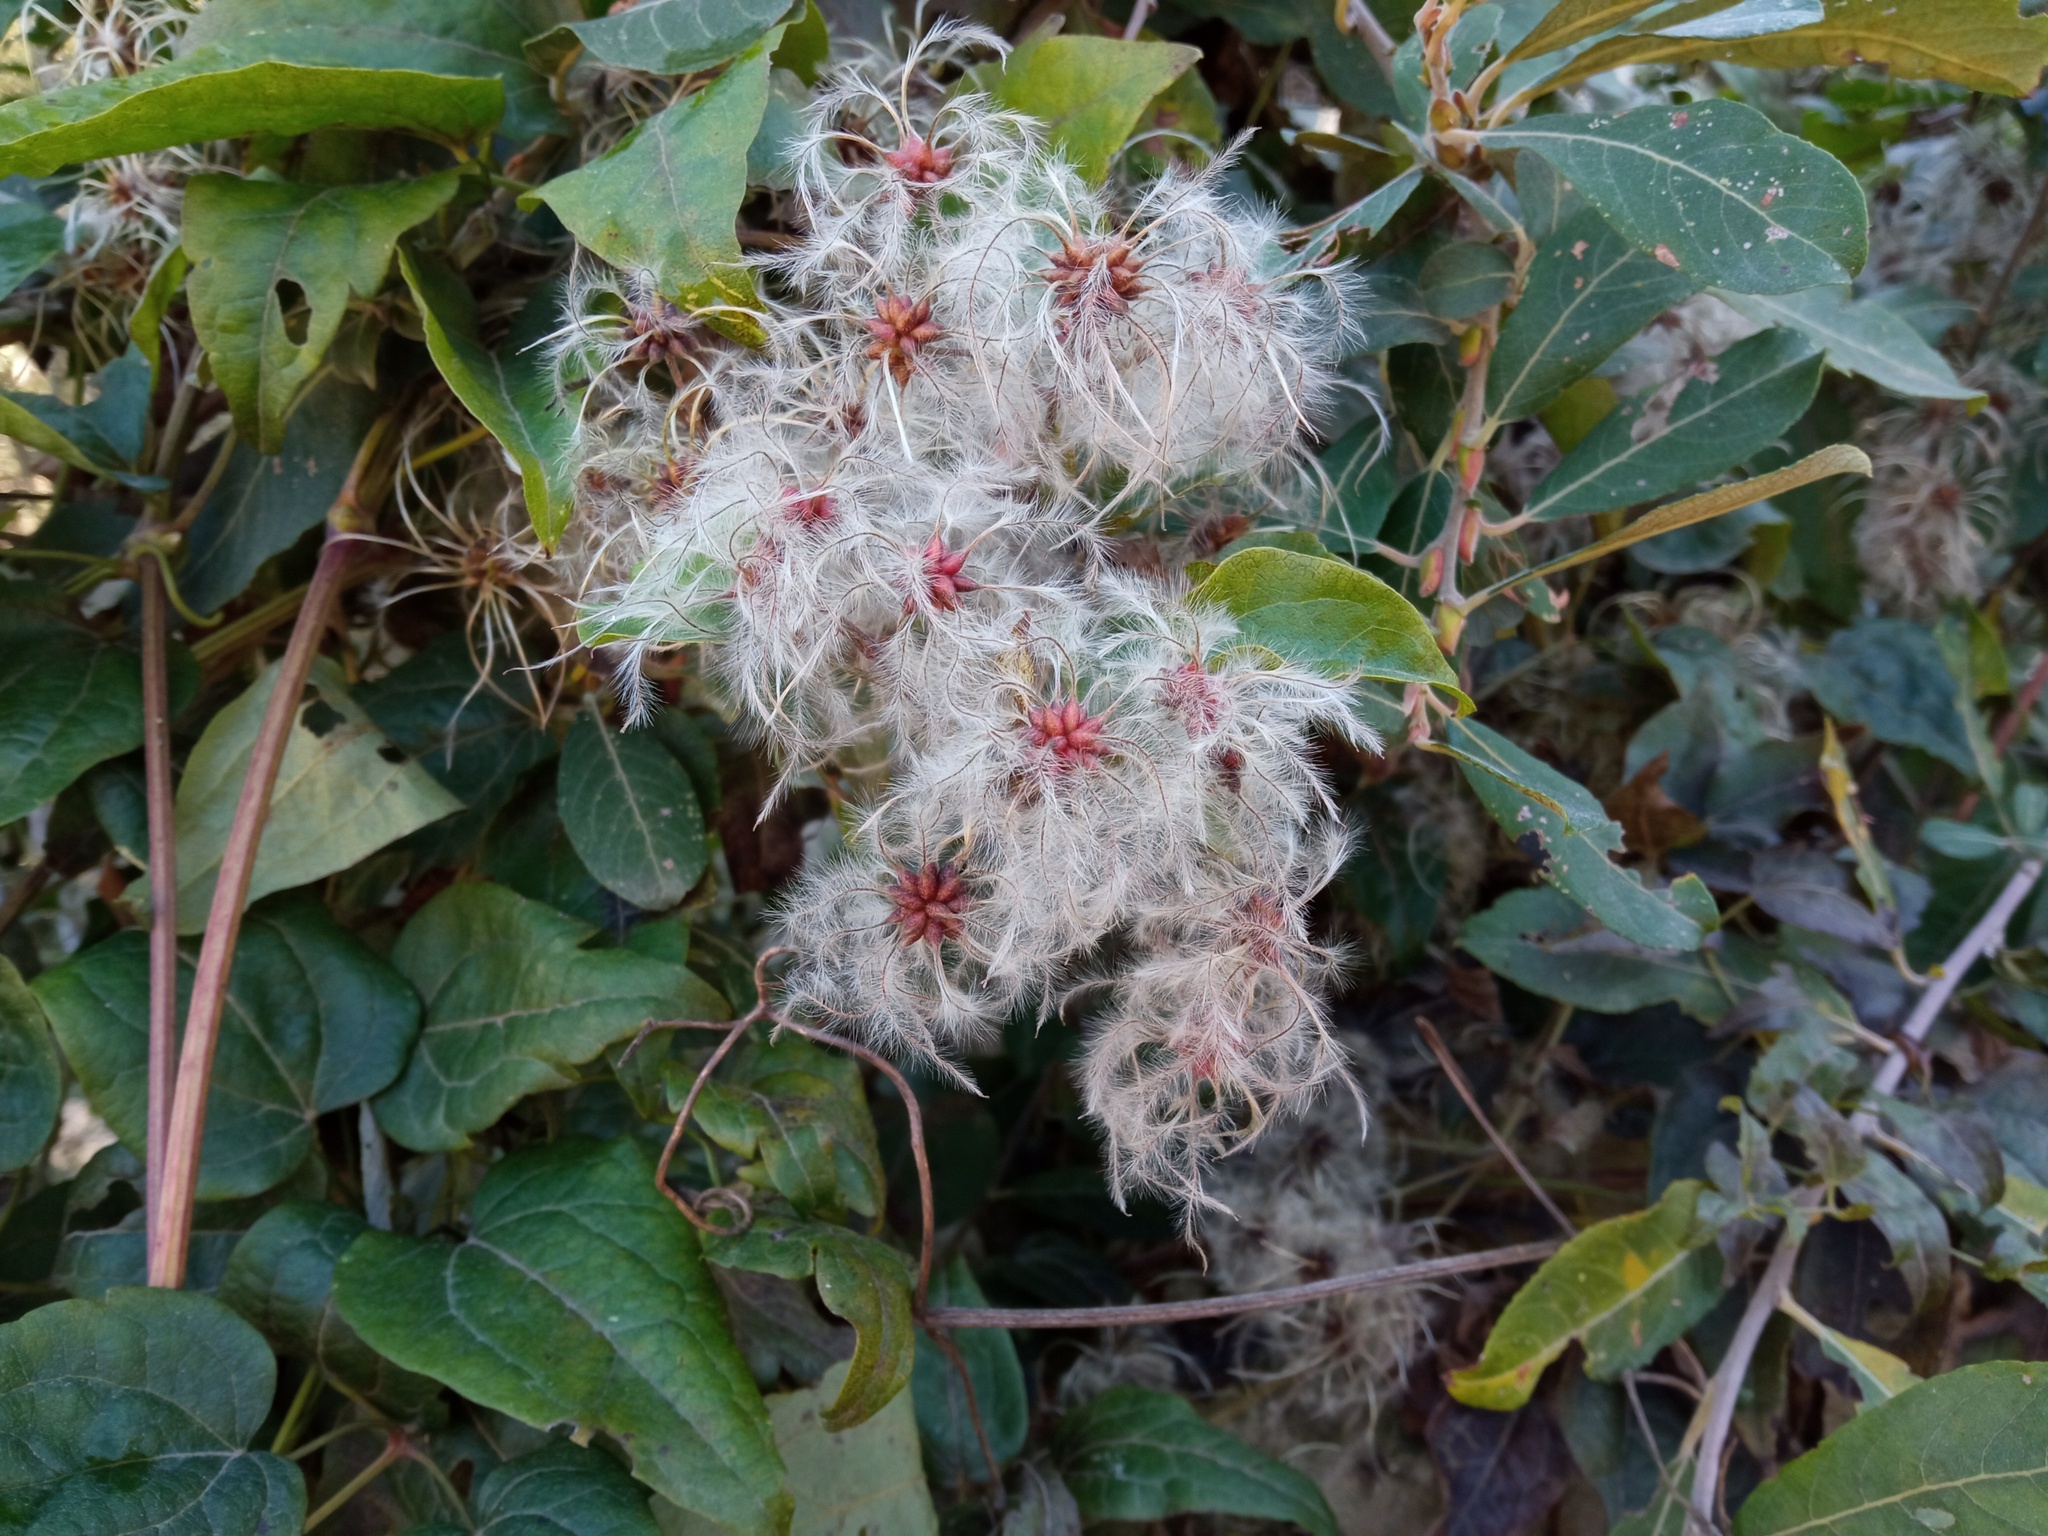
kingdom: Plantae
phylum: Tracheophyta
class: Magnoliopsida
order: Ranunculales
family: Ranunculaceae
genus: Clematis
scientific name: Clematis vitalba
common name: Evergreen clematis
